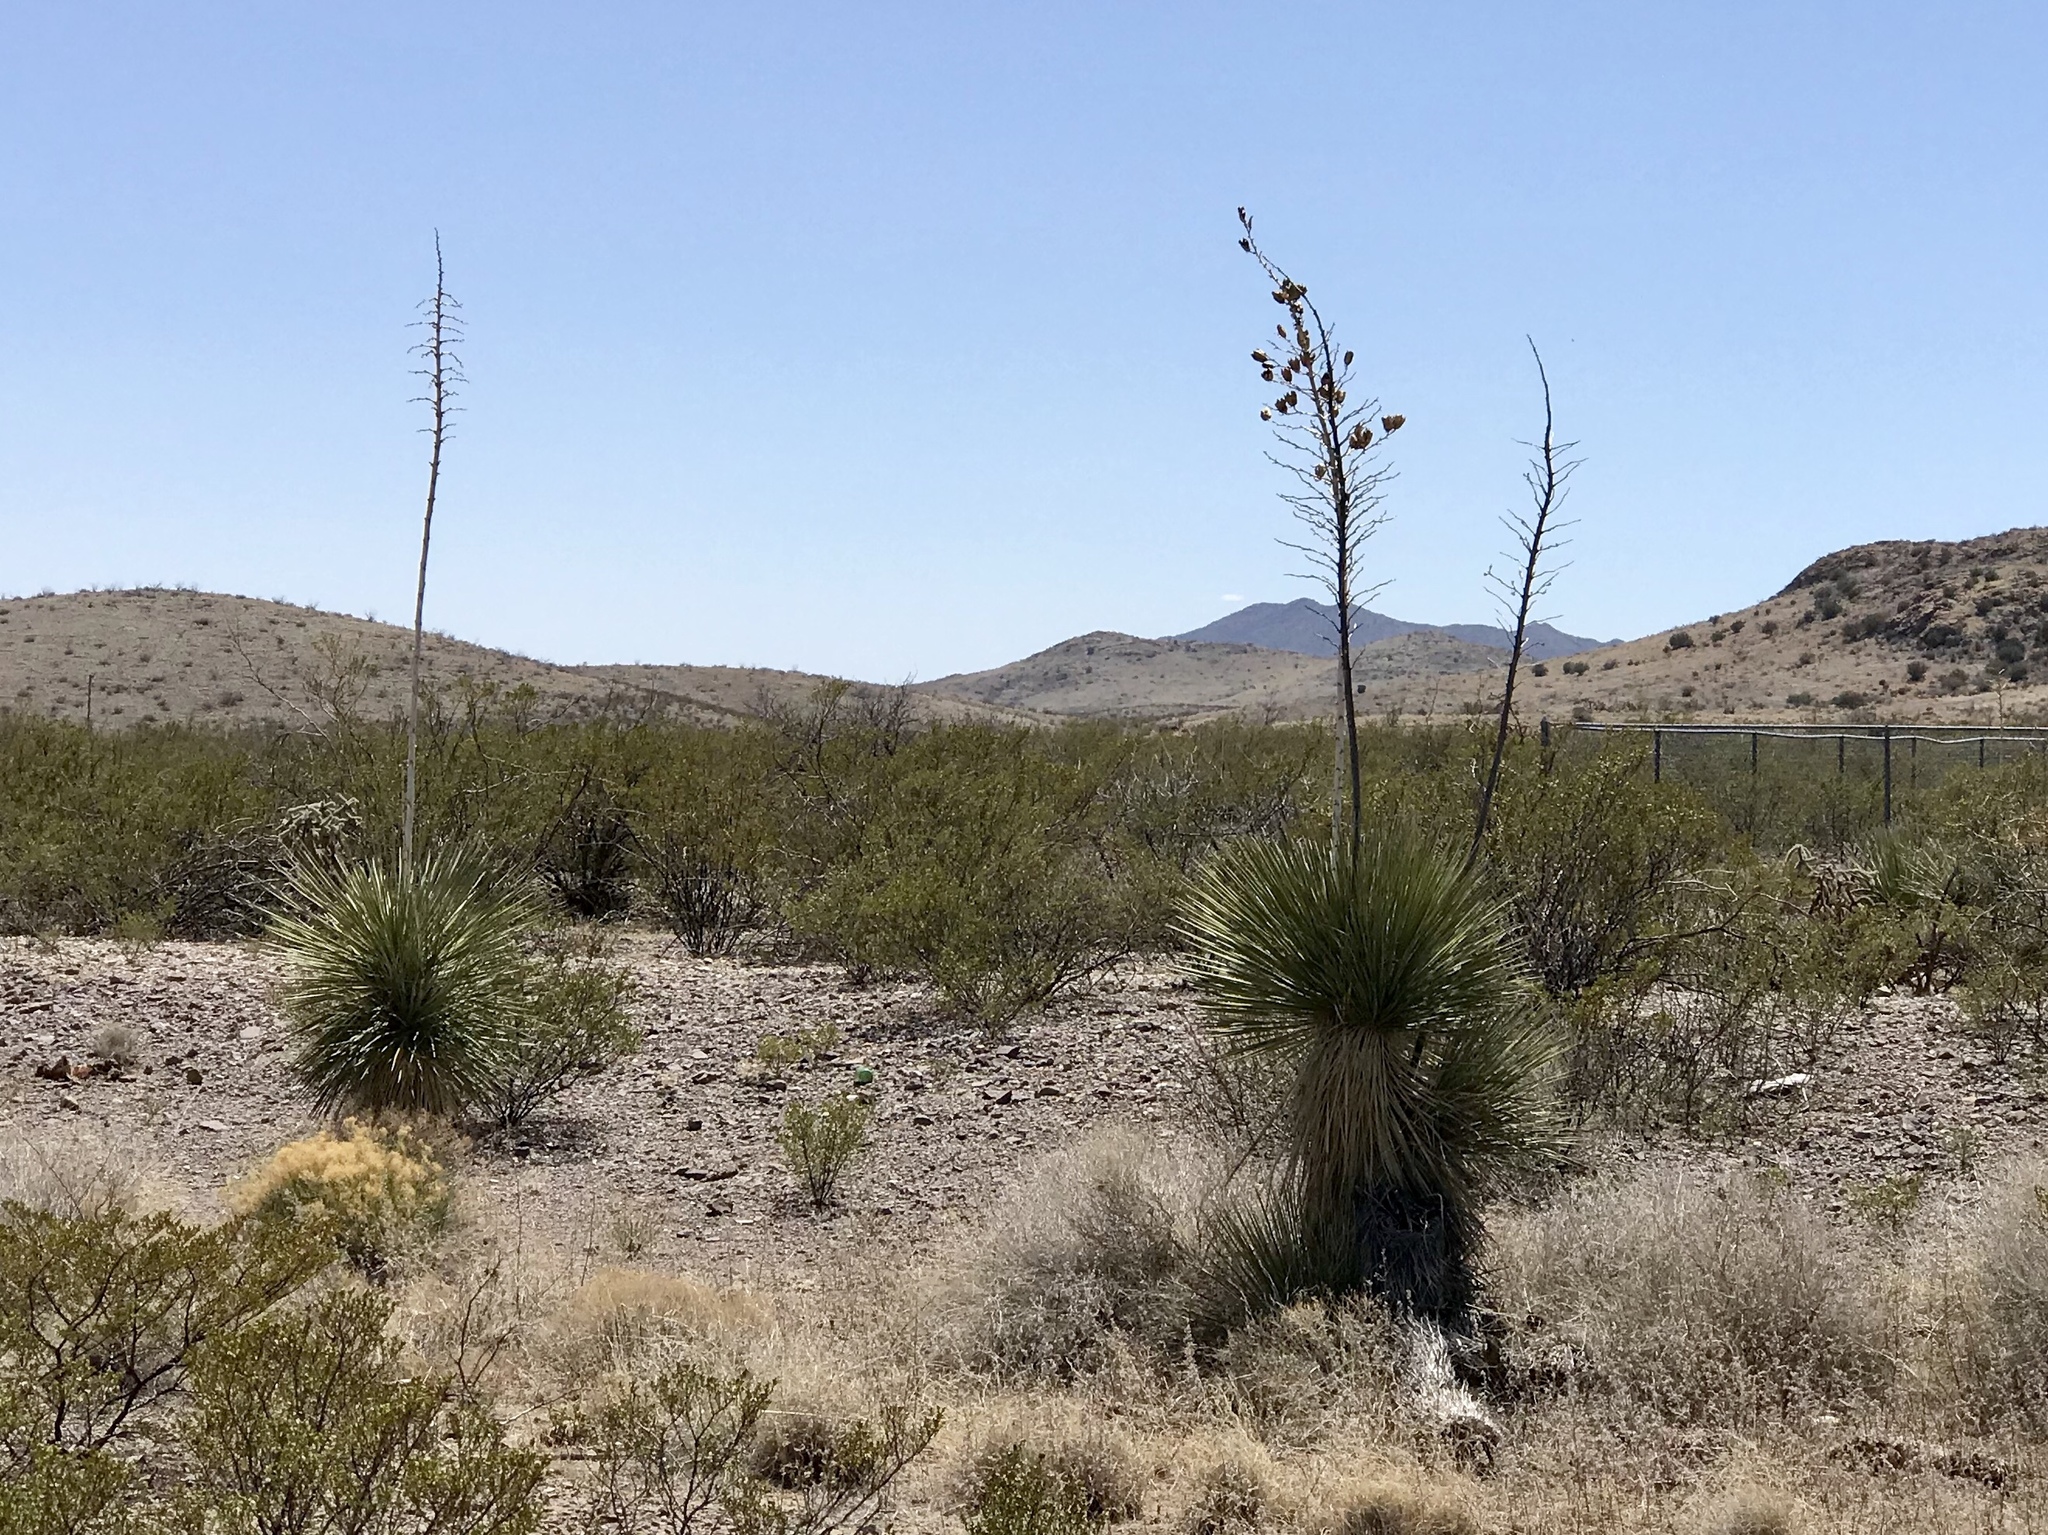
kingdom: Plantae
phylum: Tracheophyta
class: Liliopsida
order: Asparagales
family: Asparagaceae
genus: Yucca
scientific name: Yucca elata
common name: Palmella
